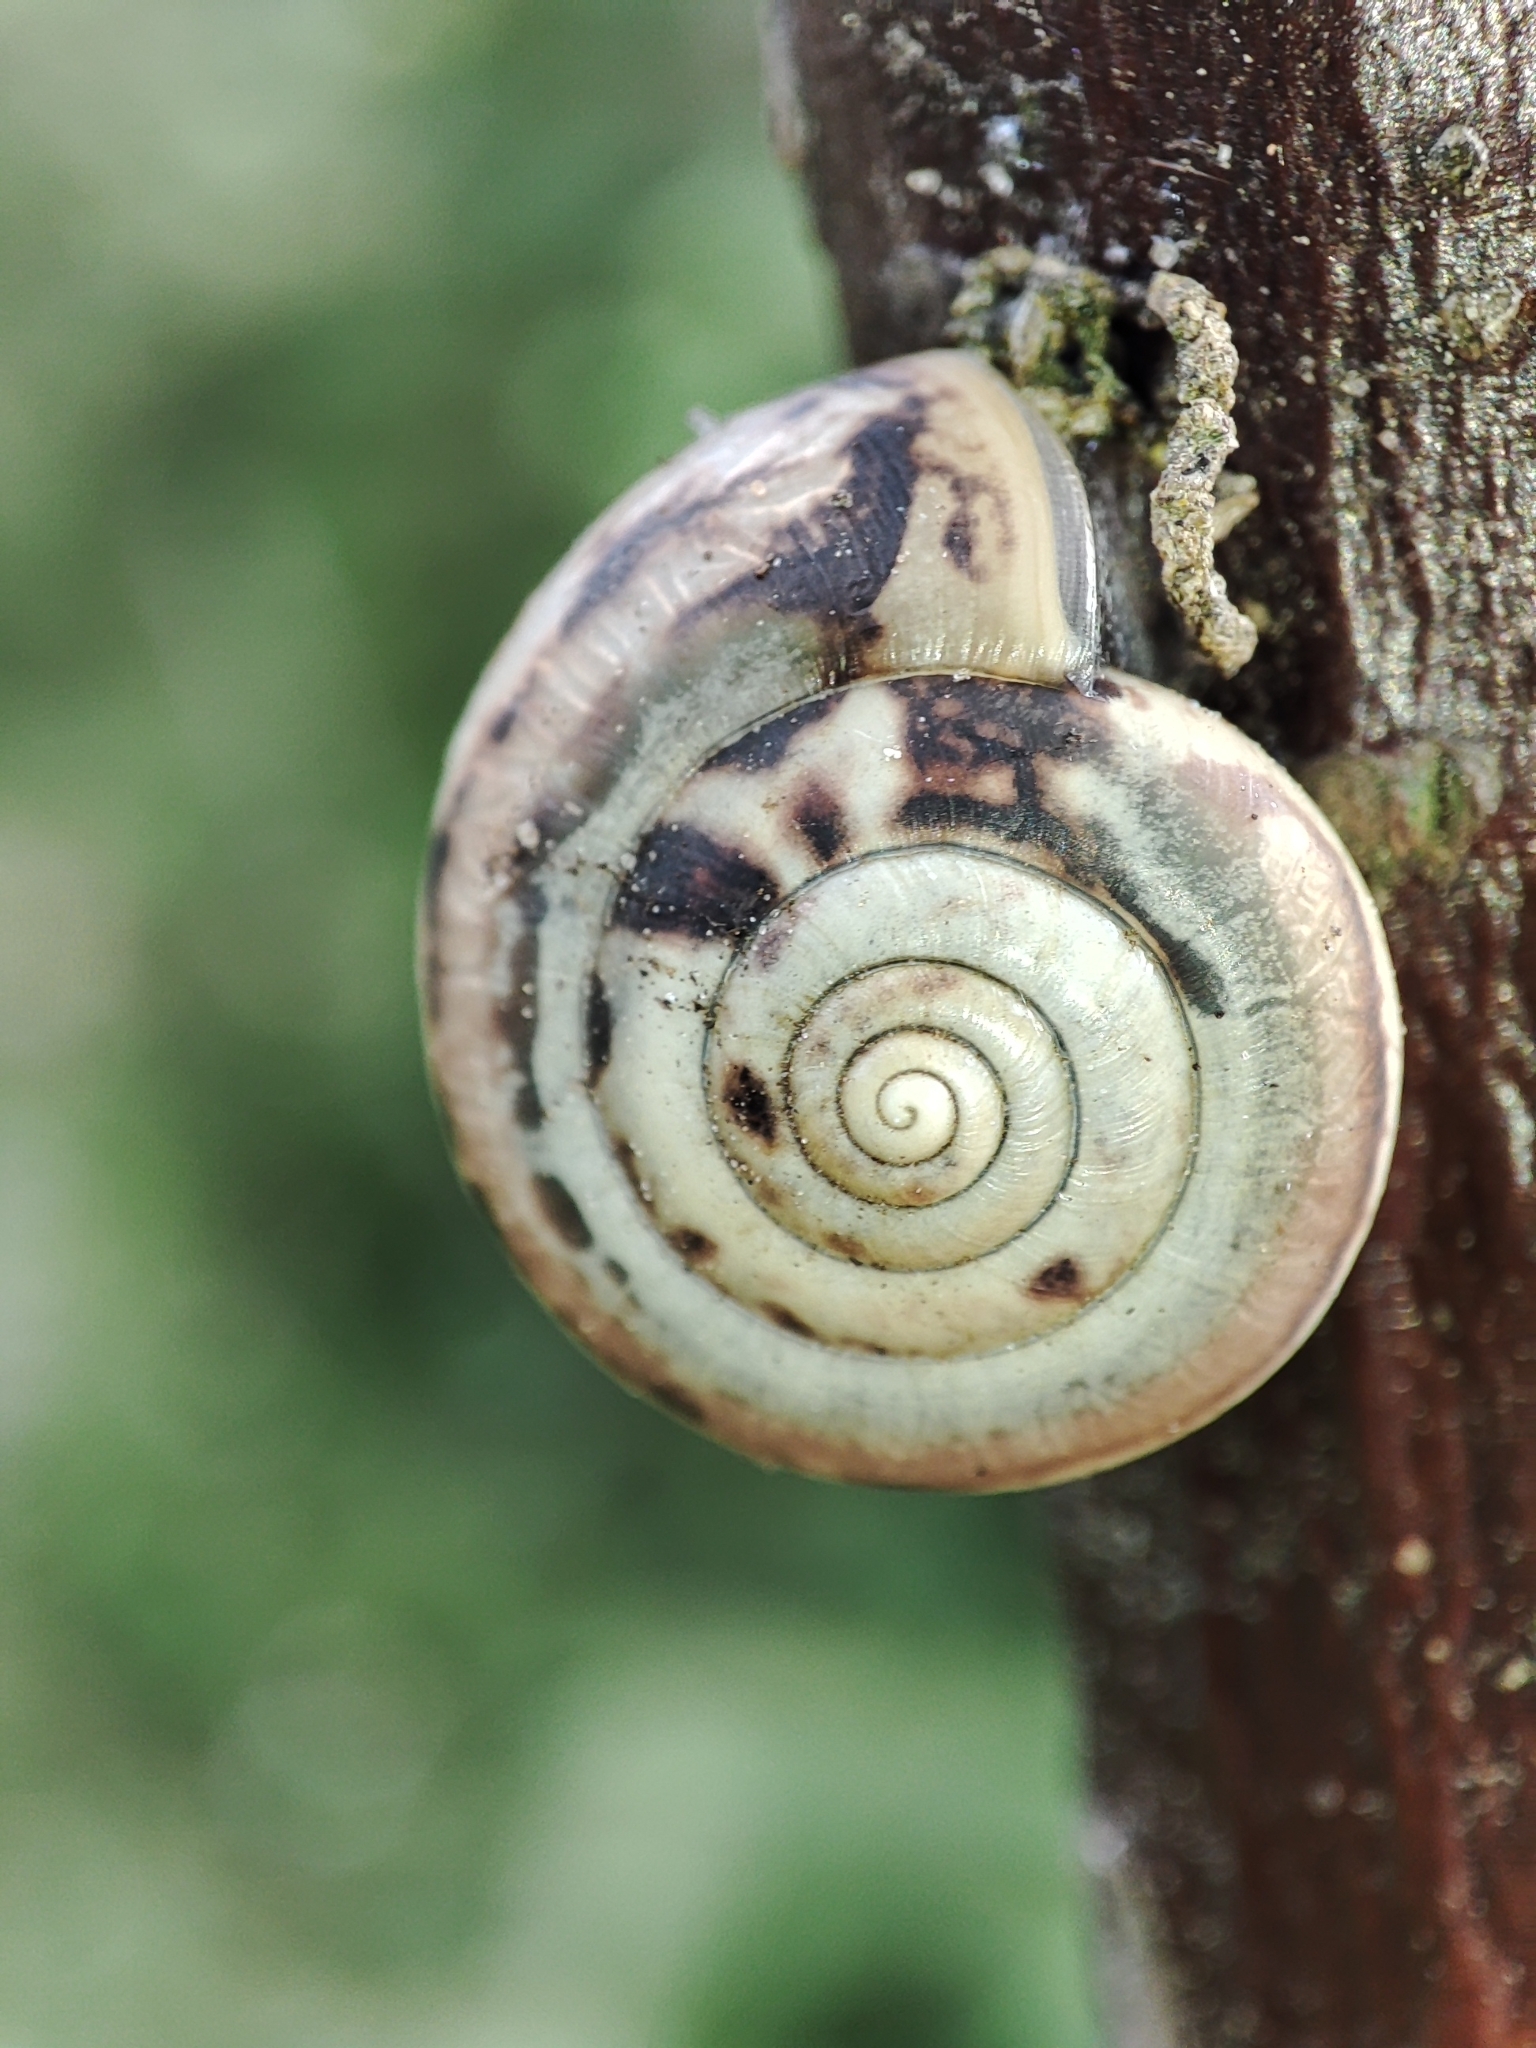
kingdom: Animalia
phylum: Mollusca
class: Gastropoda
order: Stylommatophora
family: Hygromiidae
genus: Monacha
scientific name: Monacha cartusiana
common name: Carthusian snail
